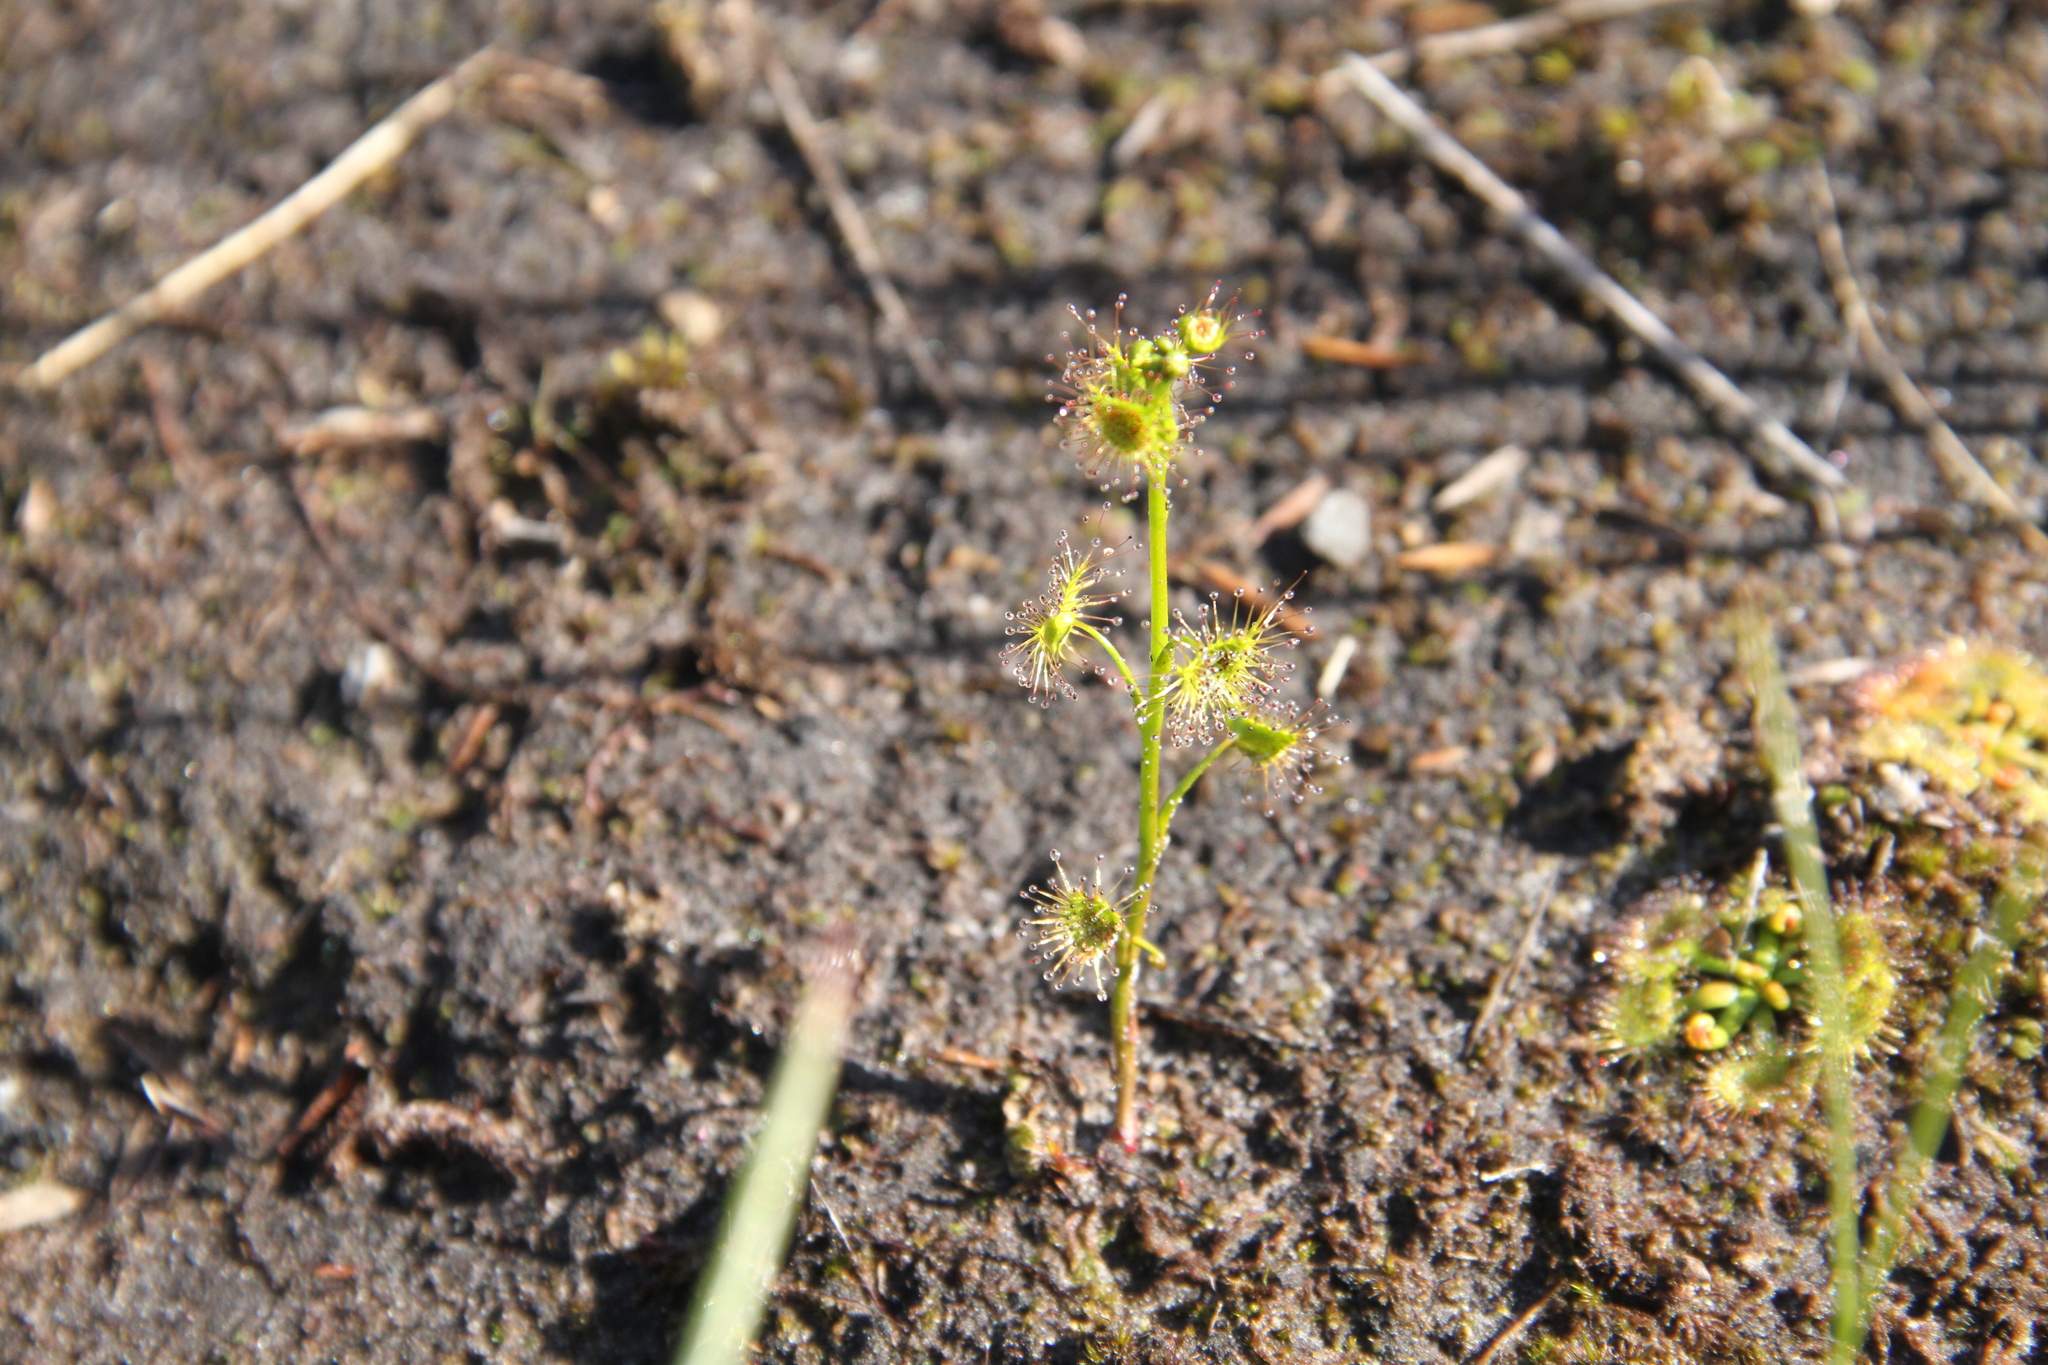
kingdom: Plantae
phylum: Tracheophyta
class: Magnoliopsida
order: Caryophyllales
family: Droseraceae
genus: Drosera
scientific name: Drosera peltata
